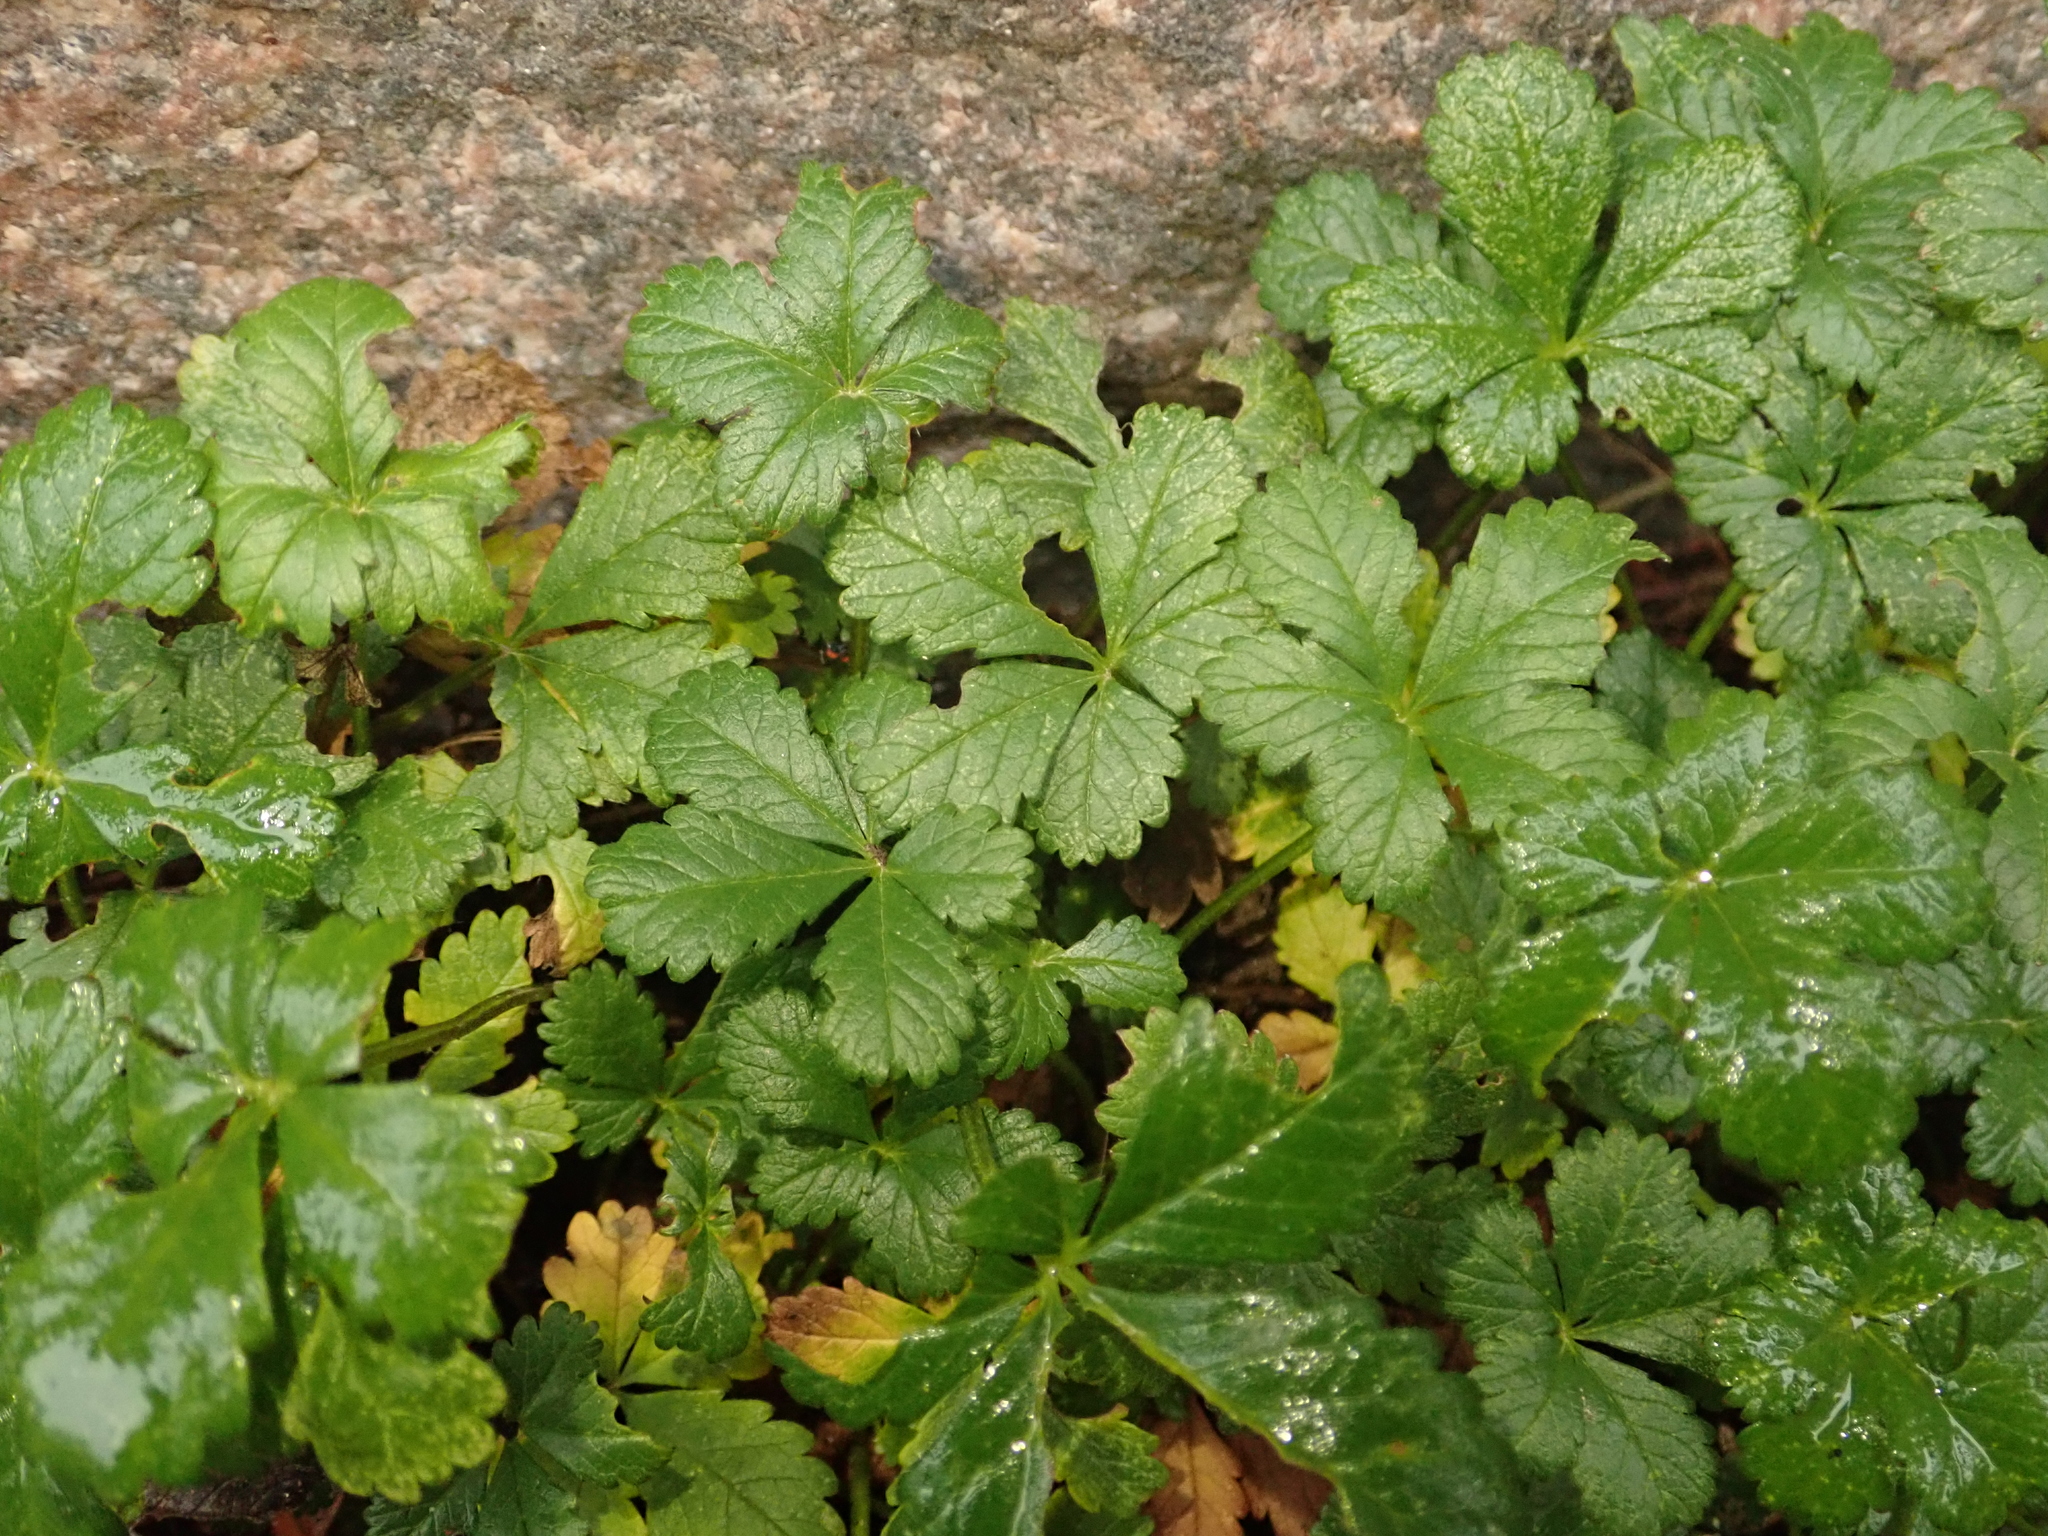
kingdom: Plantae
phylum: Tracheophyta
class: Magnoliopsida
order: Rosales
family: Rosaceae
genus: Potentilla
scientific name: Potentilla reptans
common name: Creeping cinquefoil
